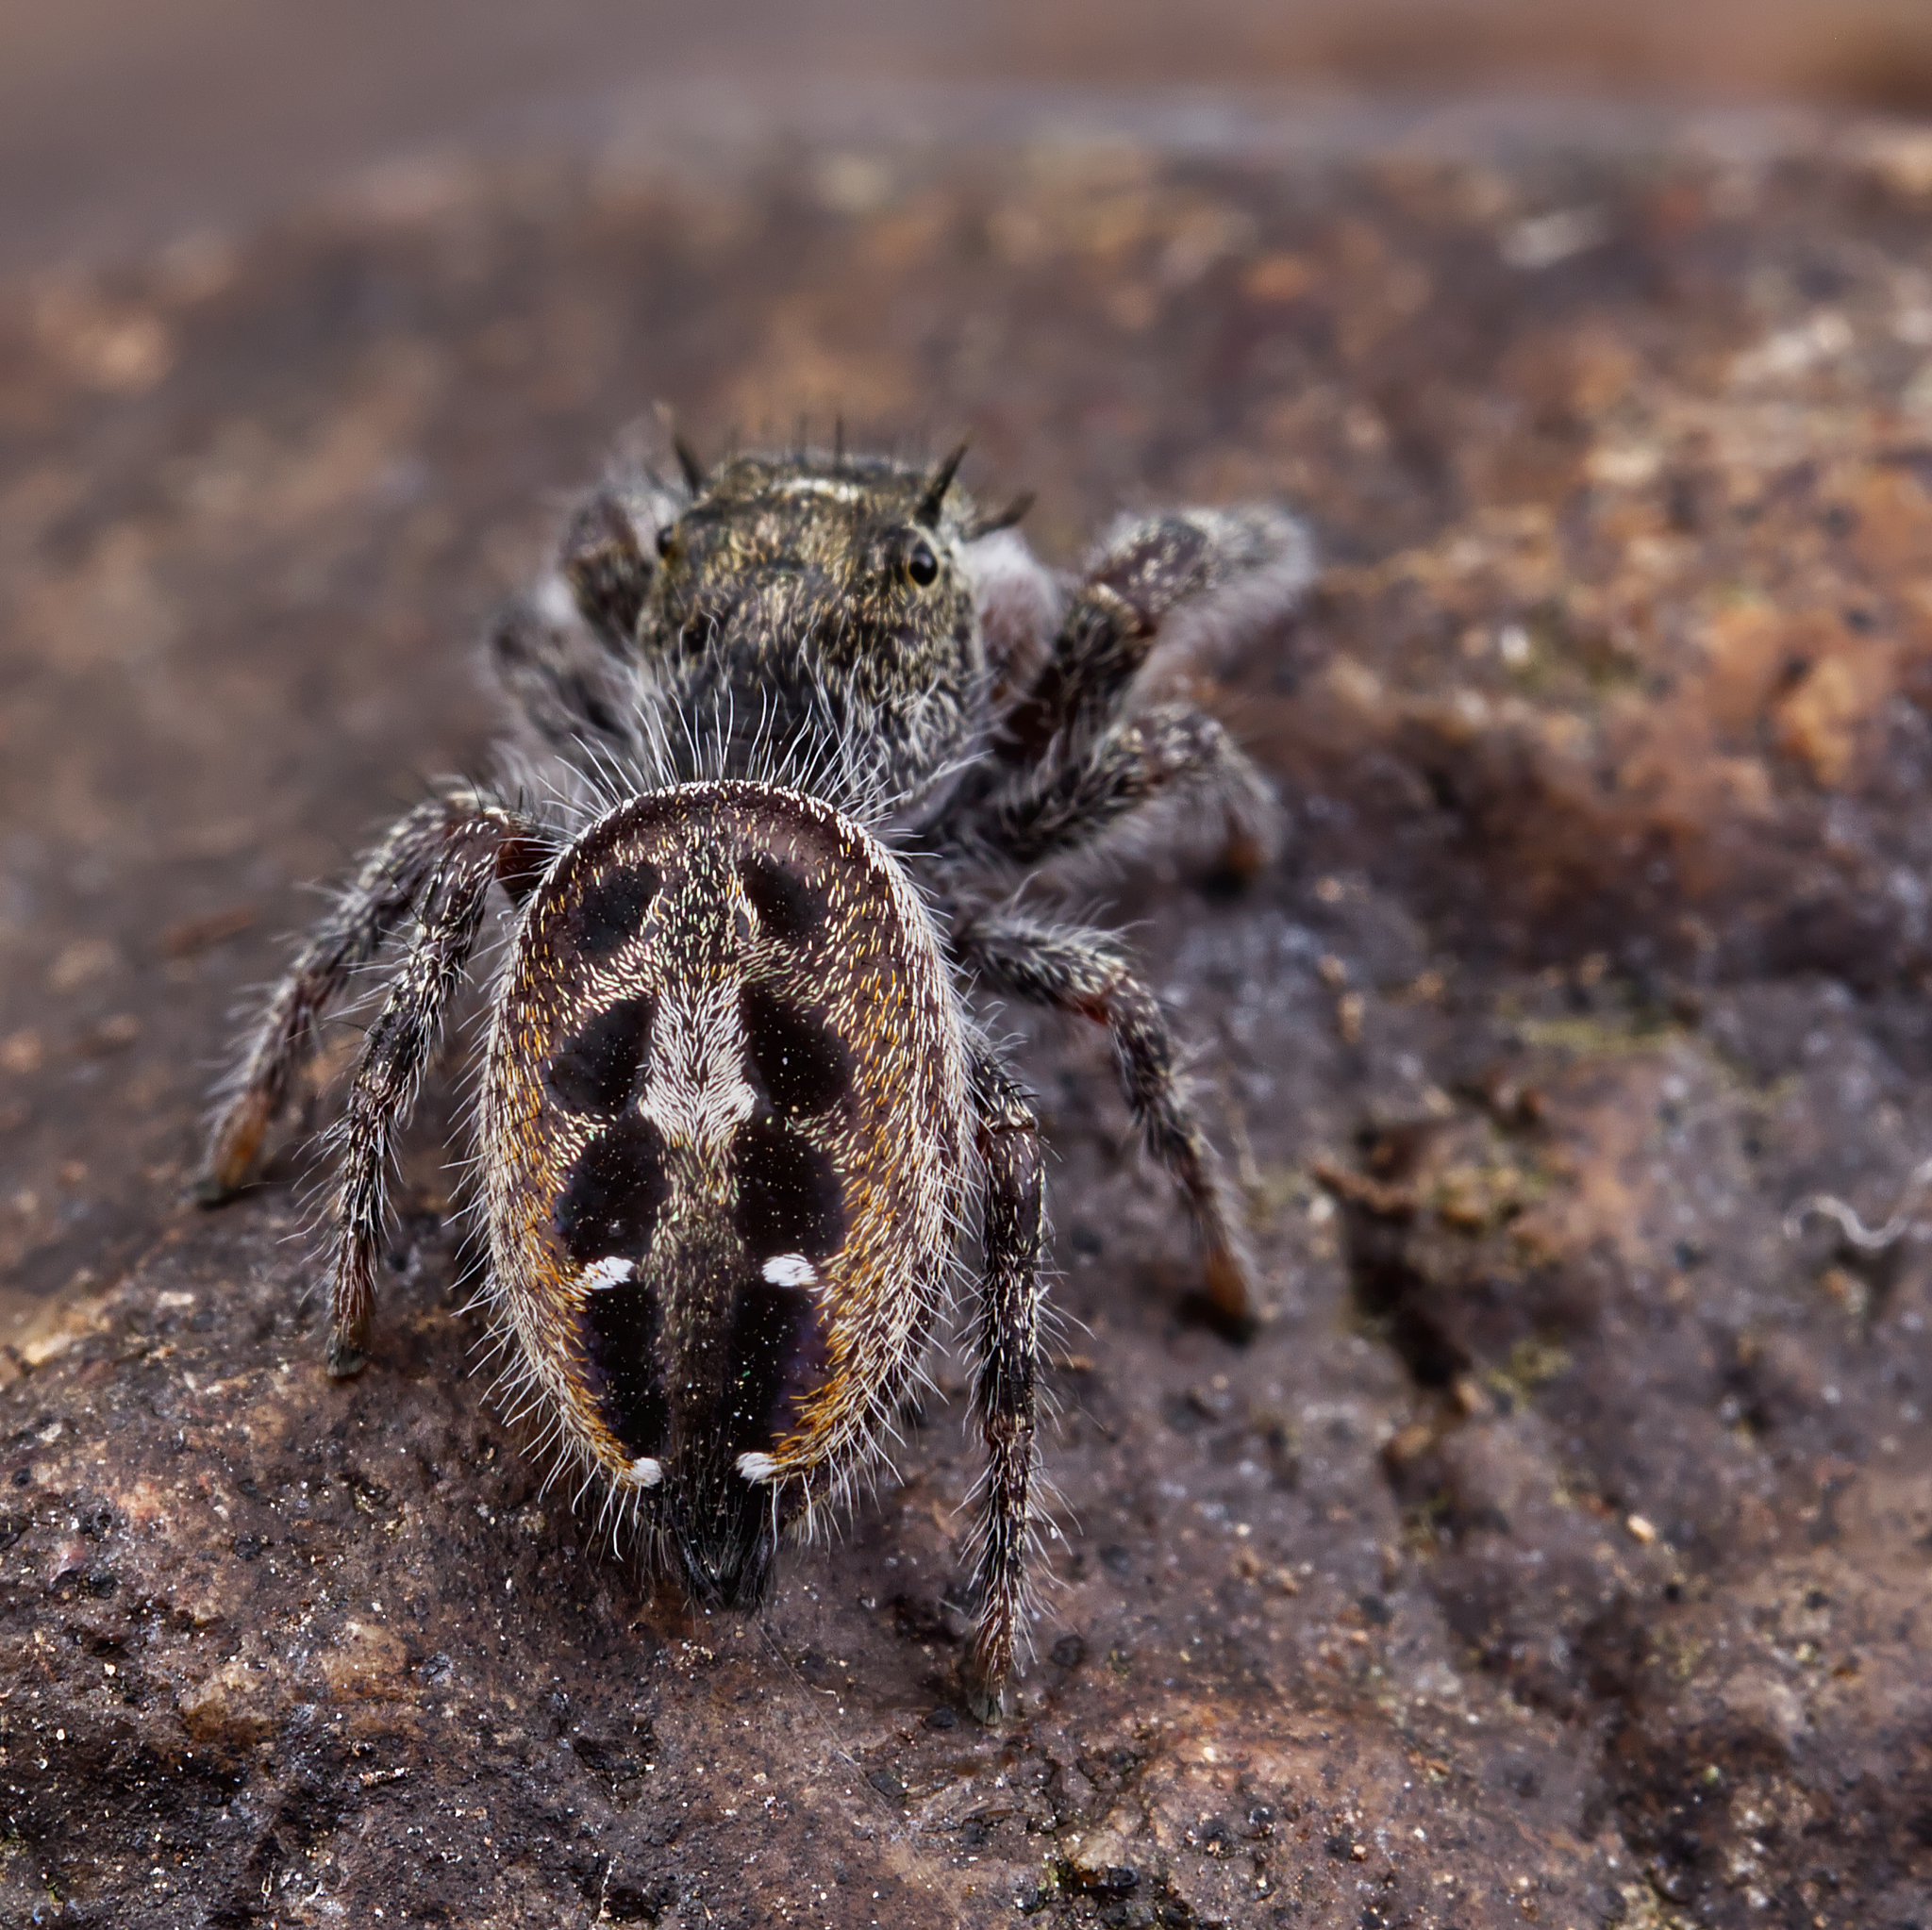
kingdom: Animalia
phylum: Arthropoda
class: Arachnida
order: Araneae
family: Salticidae
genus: Phidippus
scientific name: Phidippus insignarius
